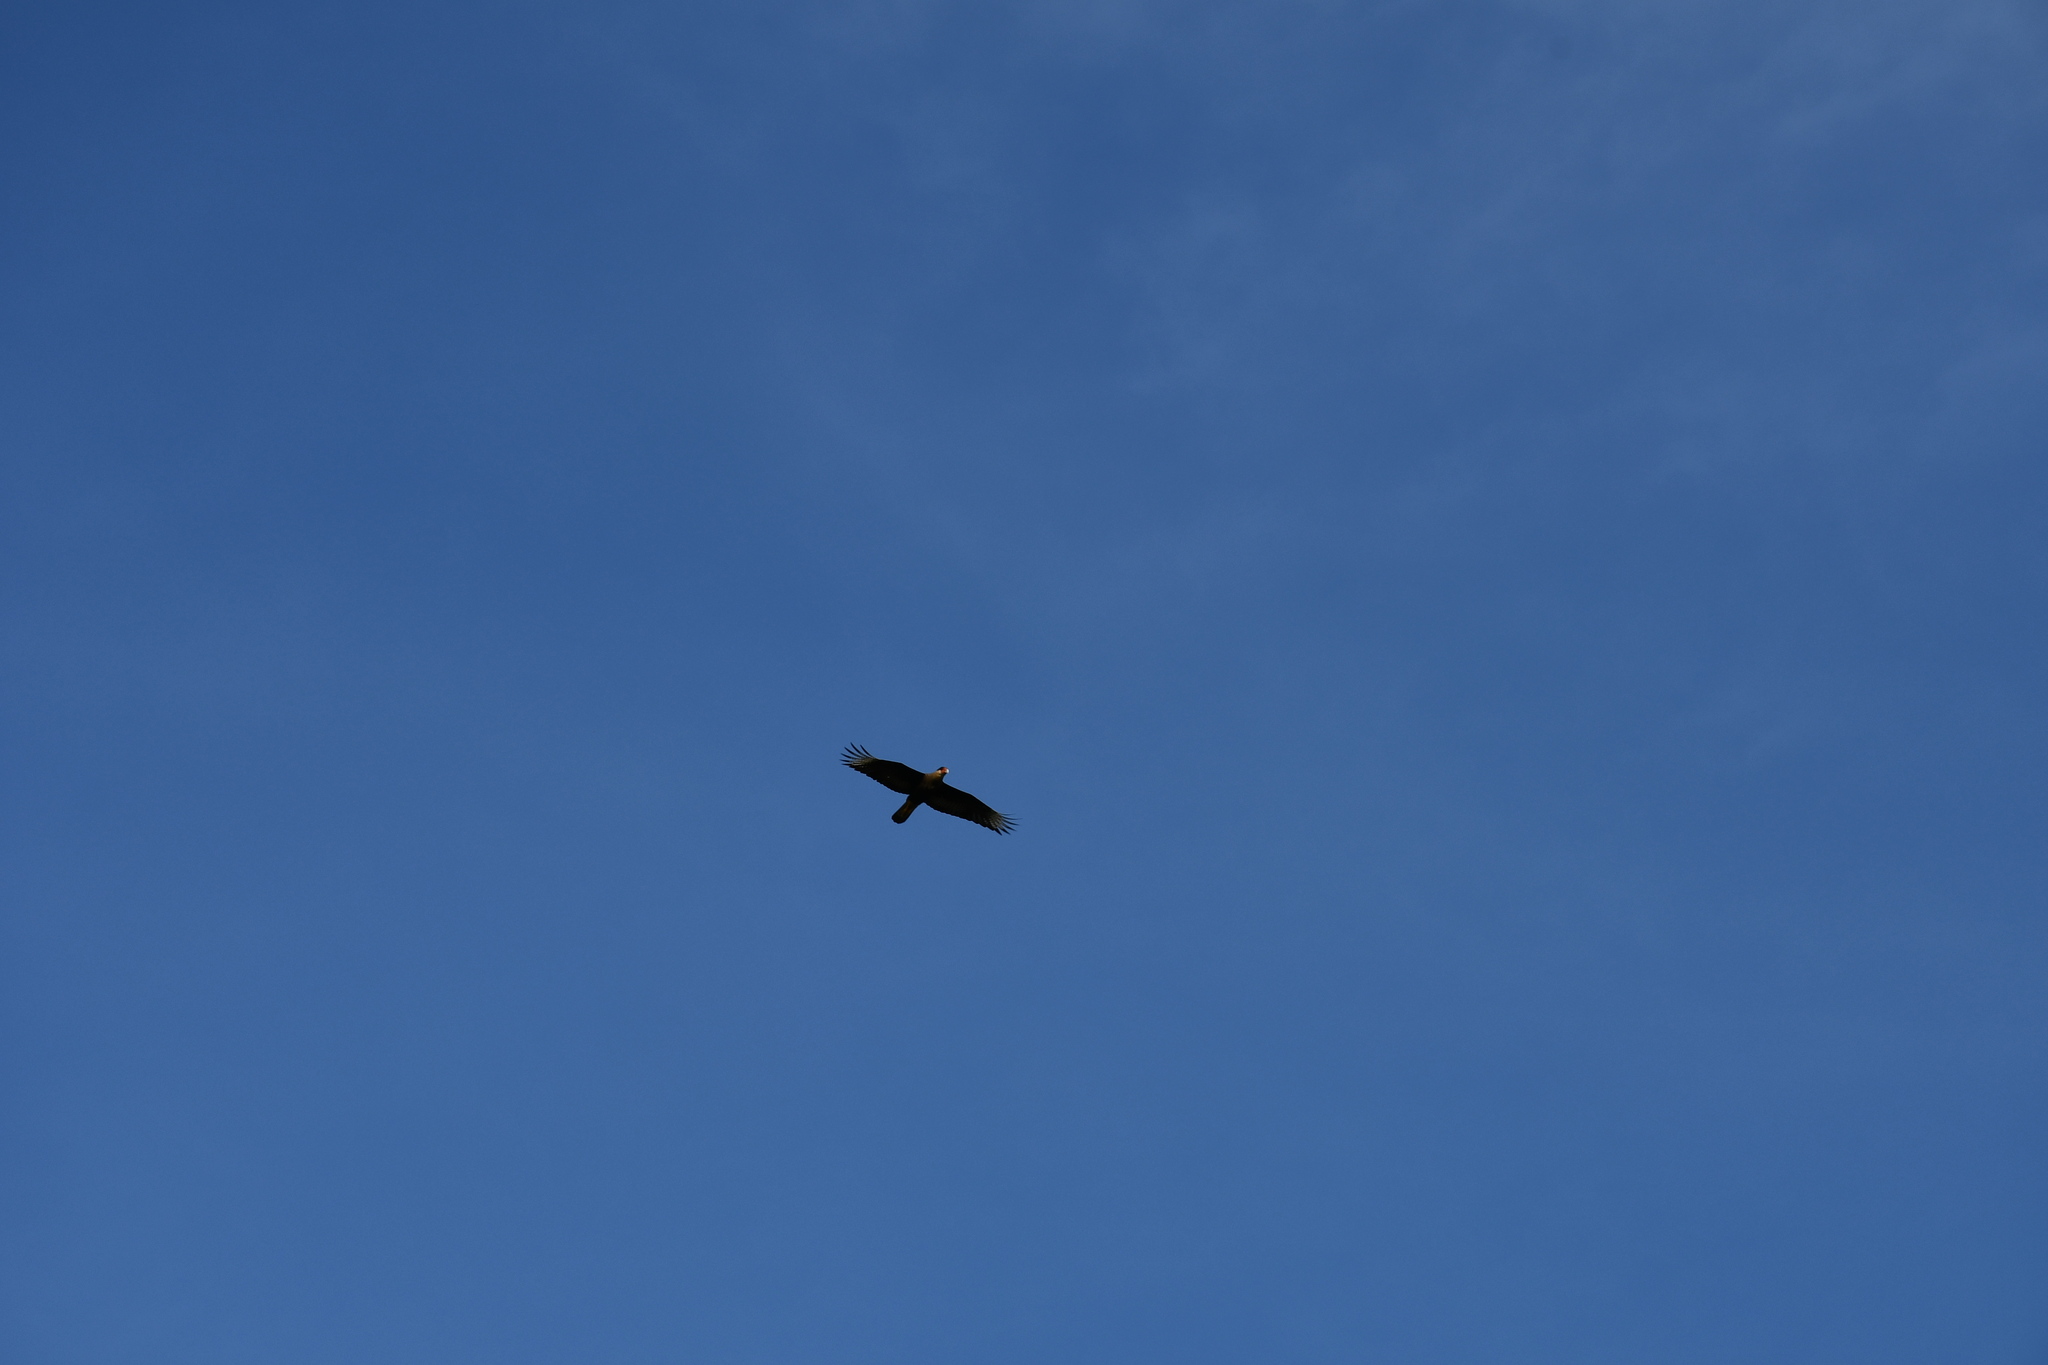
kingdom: Animalia
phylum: Chordata
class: Aves
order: Falconiformes
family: Falconidae
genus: Caracara
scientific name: Caracara plancus
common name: Southern caracara
